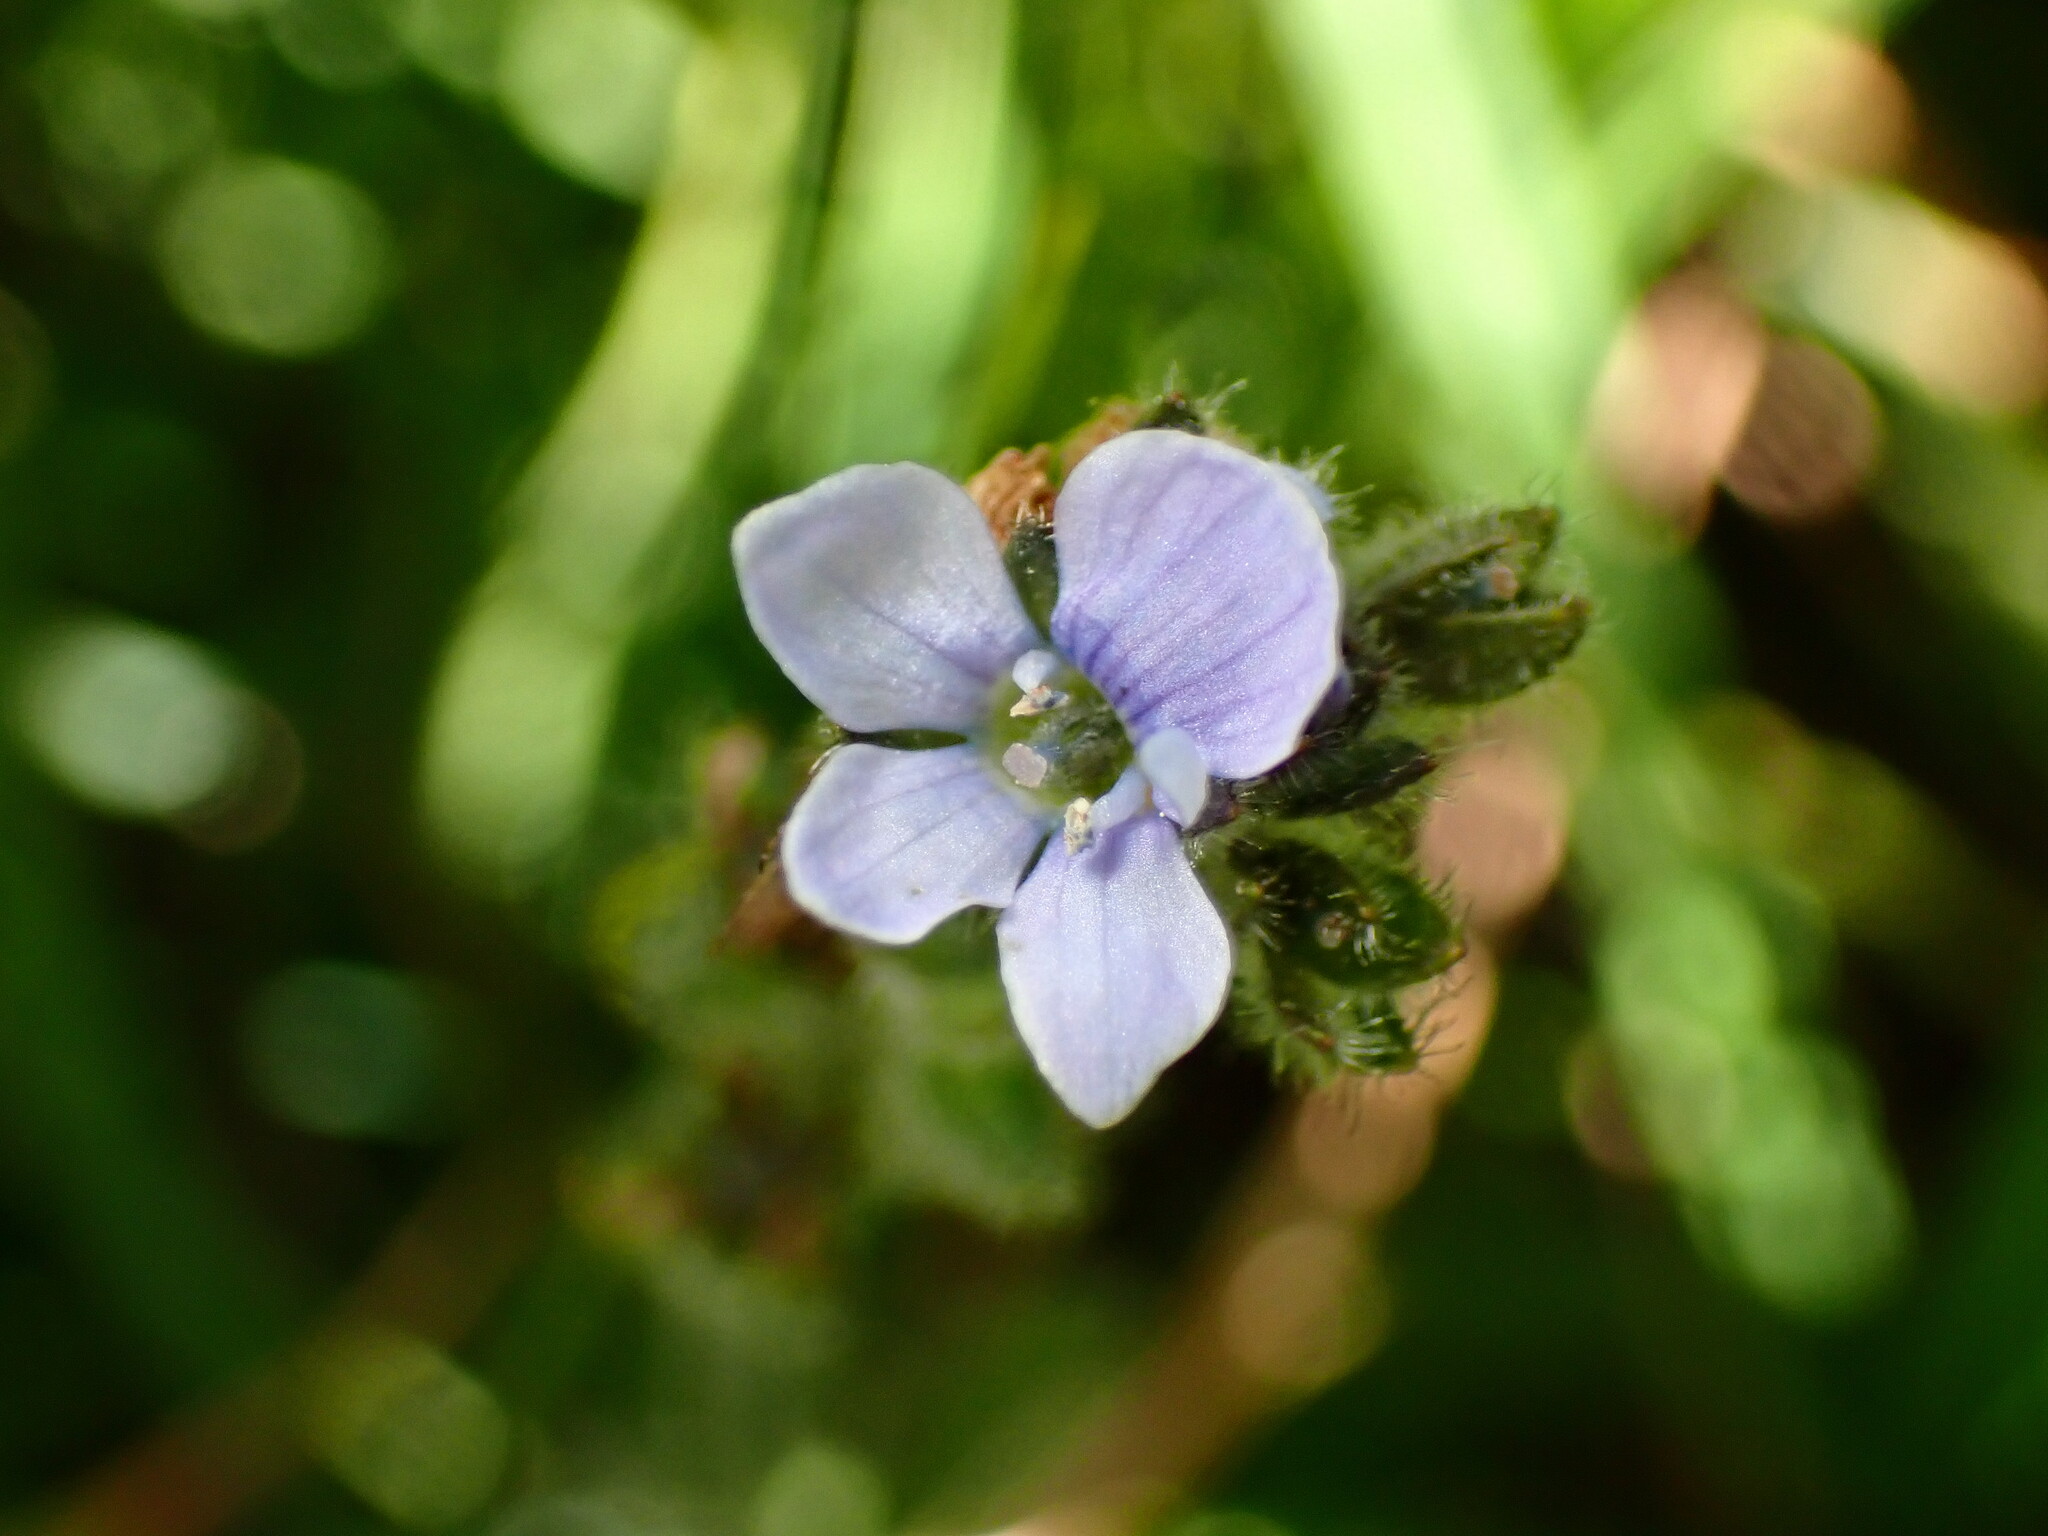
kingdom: Plantae
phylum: Tracheophyta
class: Magnoliopsida
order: Lamiales
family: Plantaginaceae
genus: Veronica
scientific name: Veronica wormskjoldii
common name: American alpine speedwell
